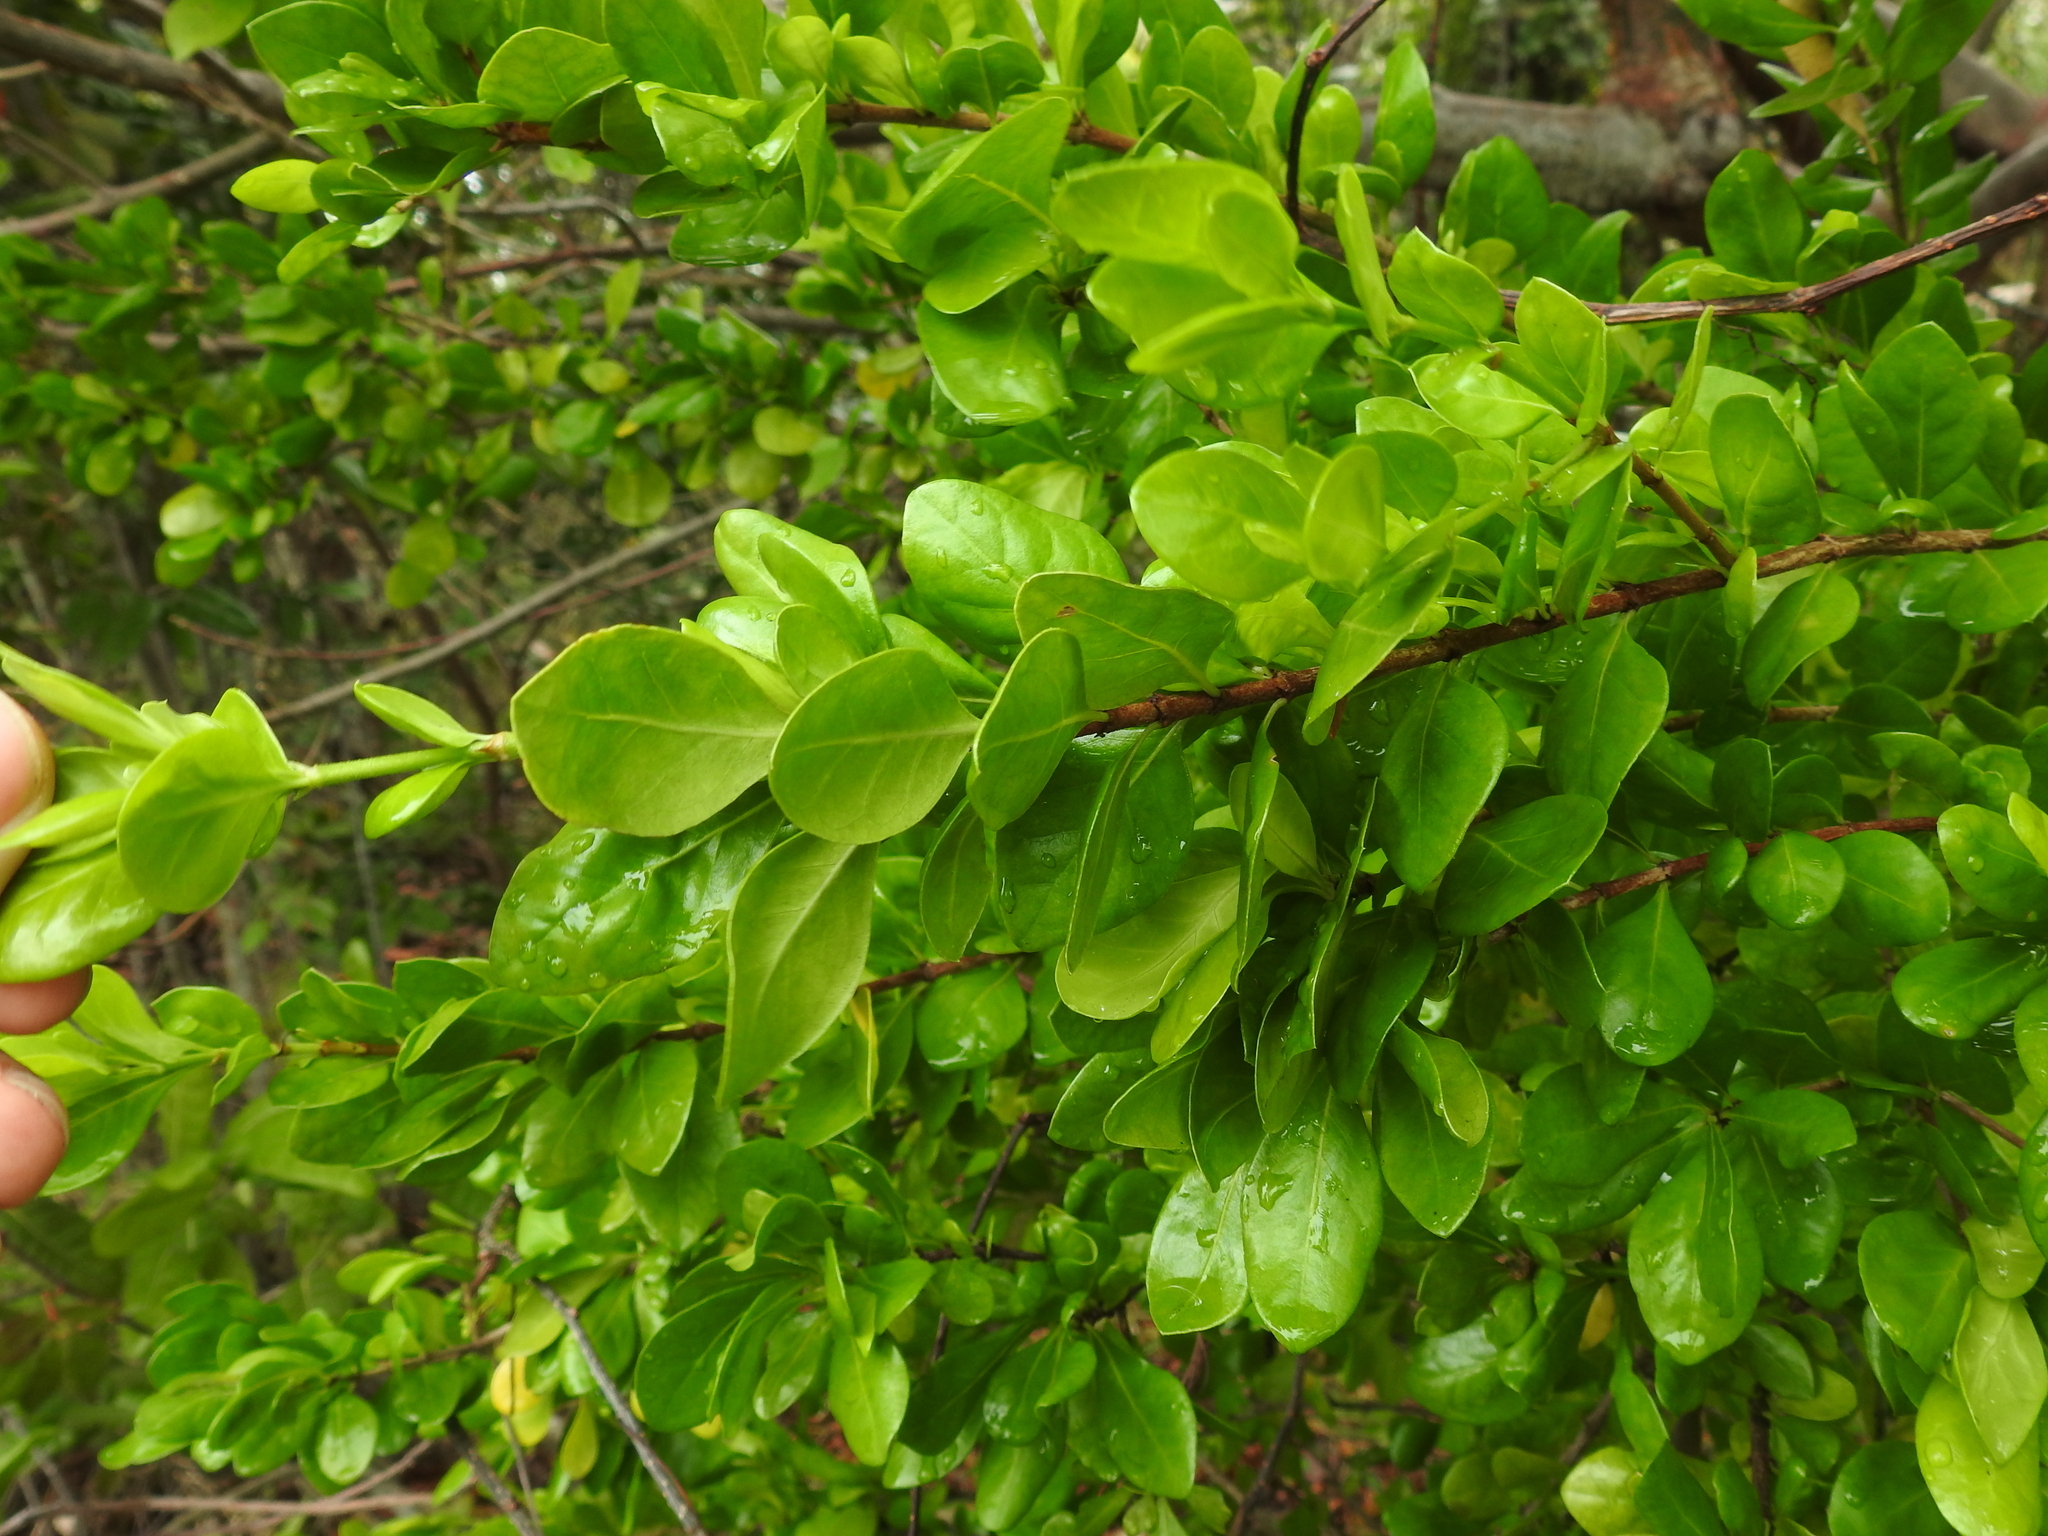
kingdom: Plantae
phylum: Tracheophyta
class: Magnoliopsida
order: Celastrales
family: Celastraceae
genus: Crossopetalum
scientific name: Crossopetalum rhacoma
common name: Maidenberry
